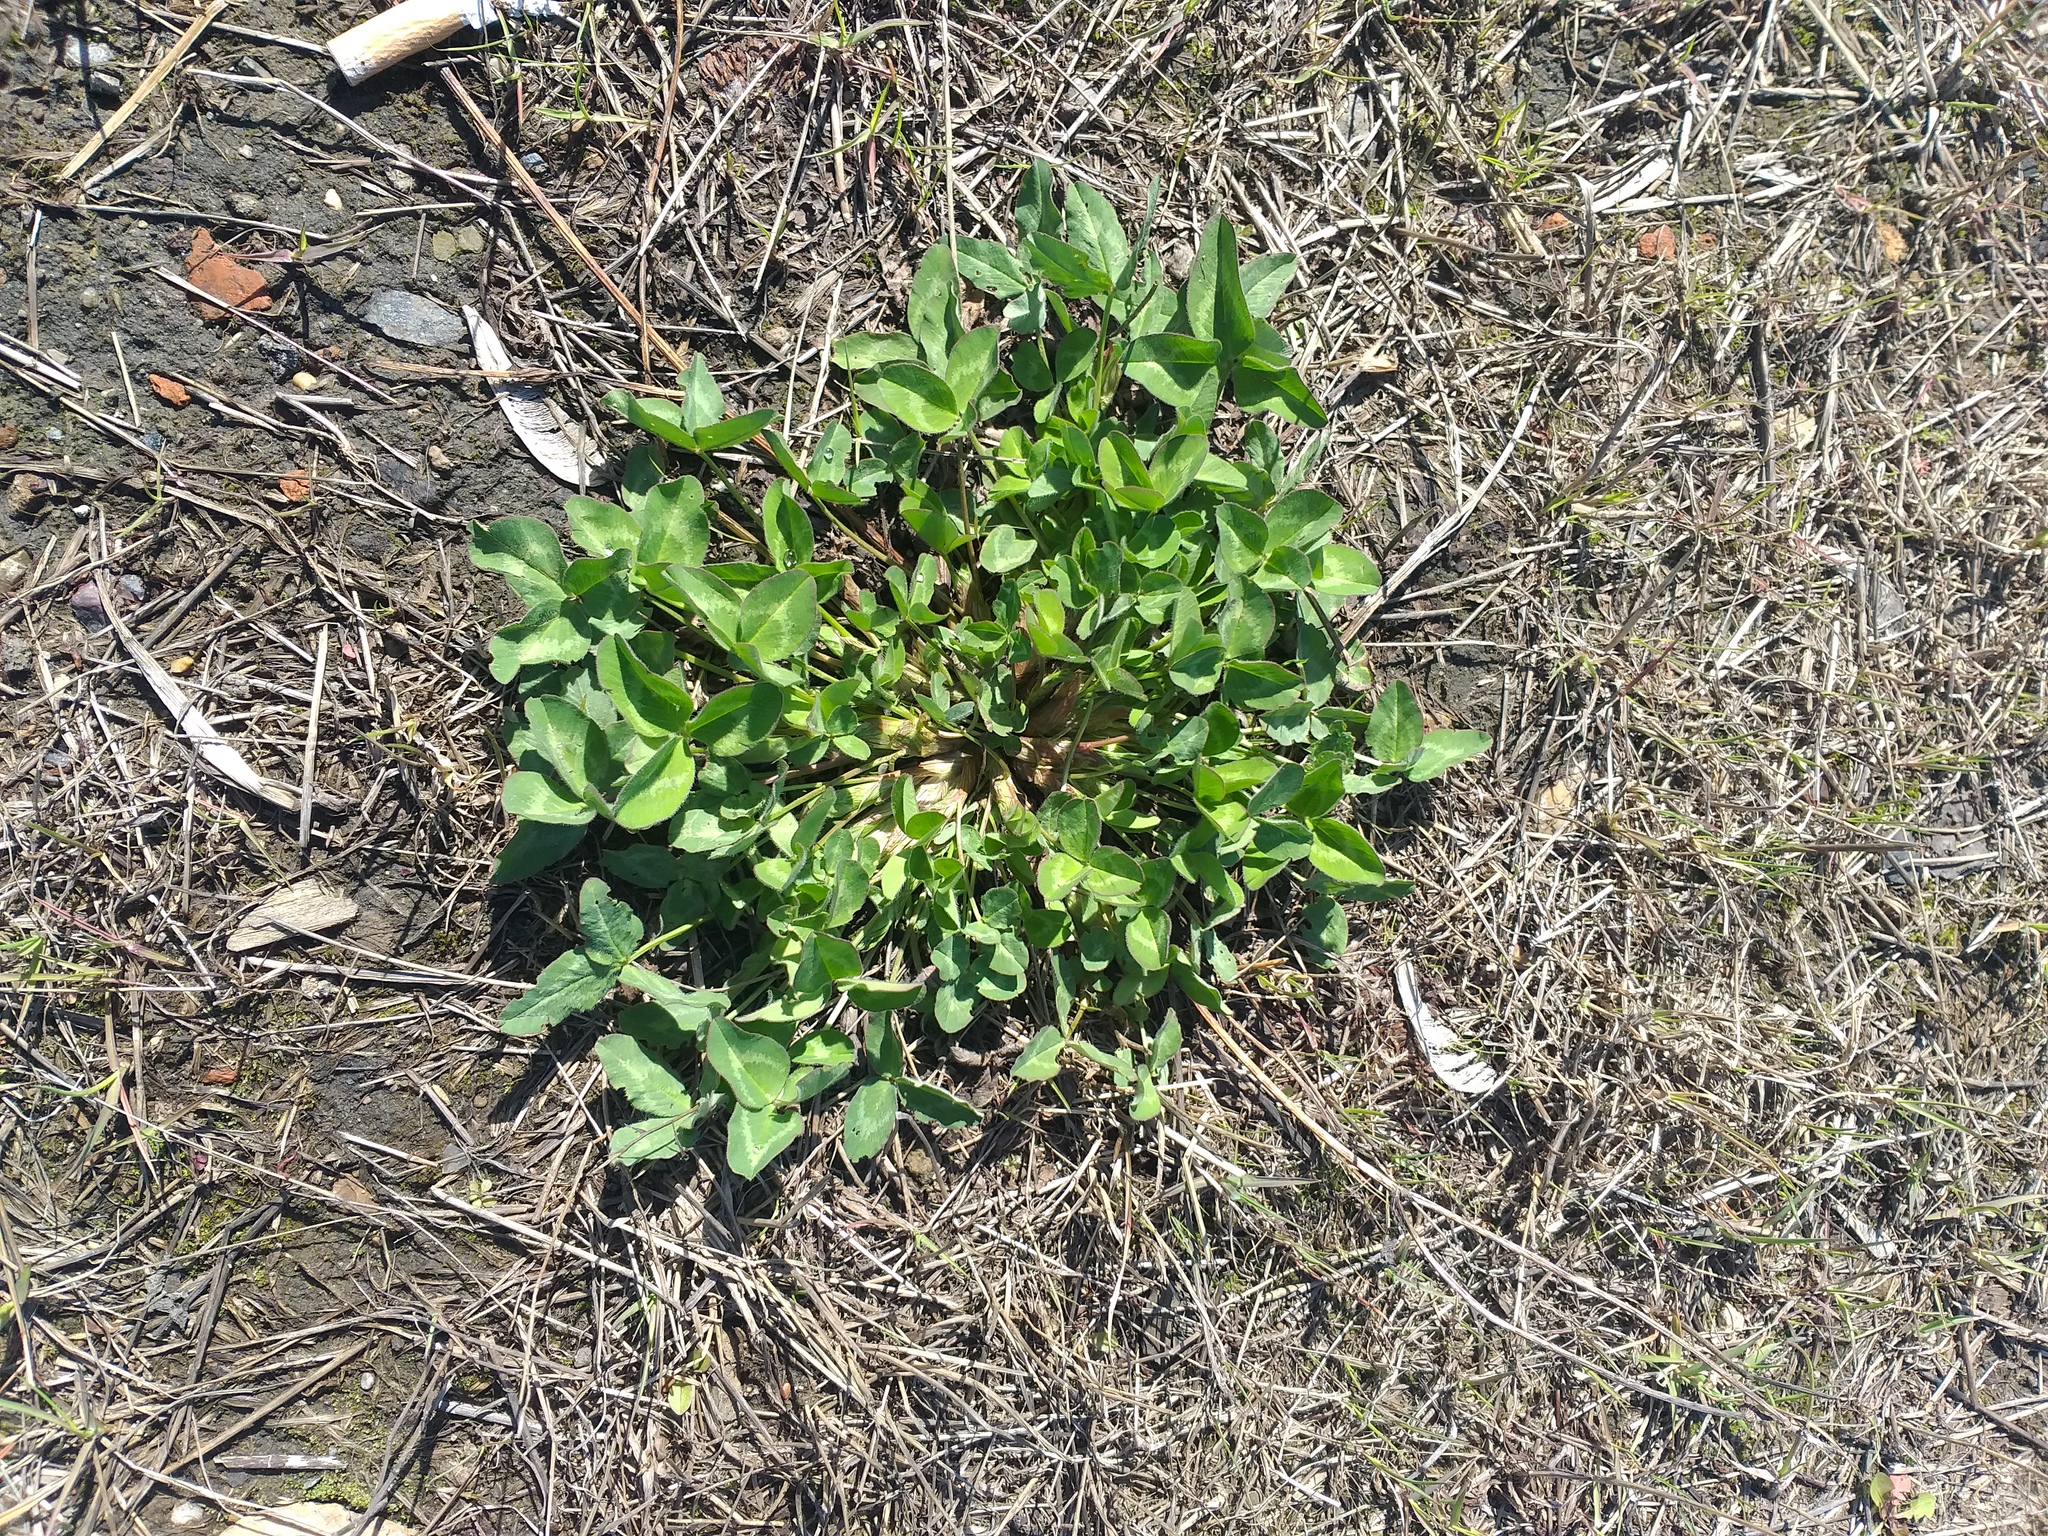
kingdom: Plantae
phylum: Tracheophyta
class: Magnoliopsida
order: Fabales
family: Fabaceae
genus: Trifolium
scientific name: Trifolium pratense
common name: Red clover
